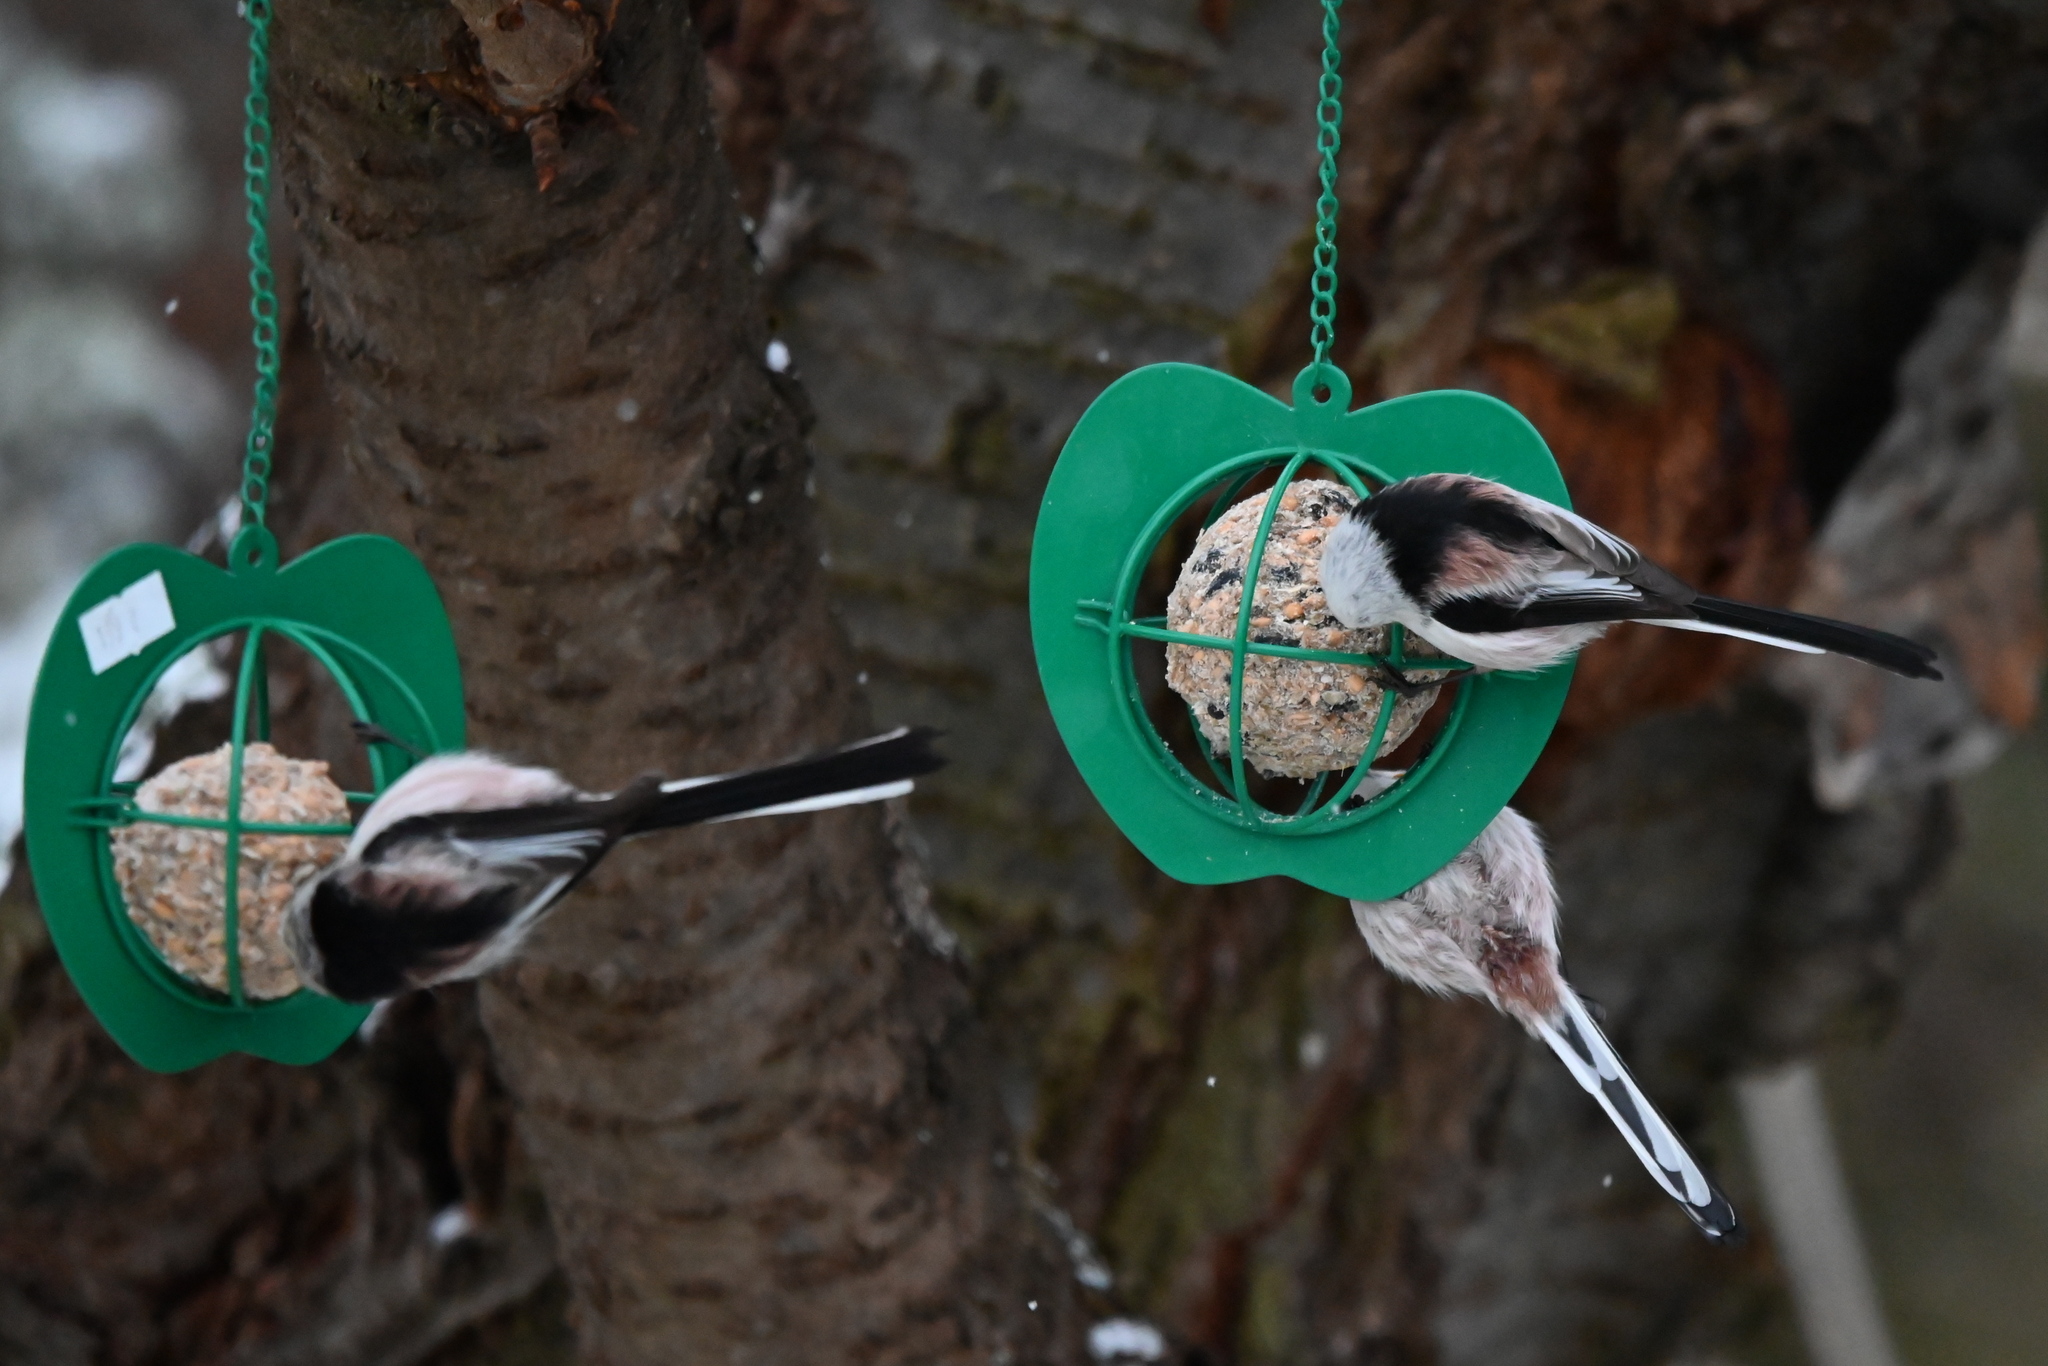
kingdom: Animalia
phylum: Chordata
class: Aves
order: Passeriformes
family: Aegithalidae
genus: Aegithalos
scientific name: Aegithalos caudatus
